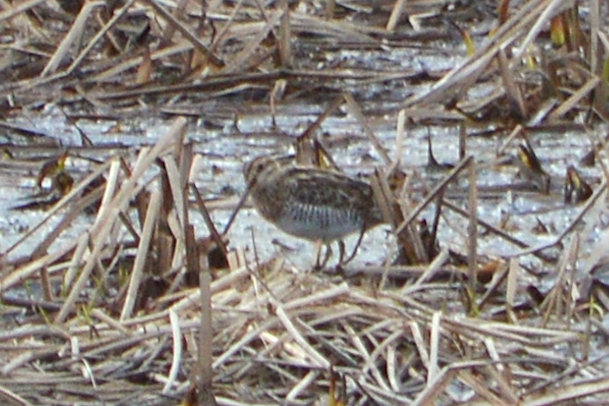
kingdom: Animalia
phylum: Chordata
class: Aves
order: Charadriiformes
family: Scolopacidae
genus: Gallinago
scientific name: Gallinago delicata
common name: Wilson's snipe
